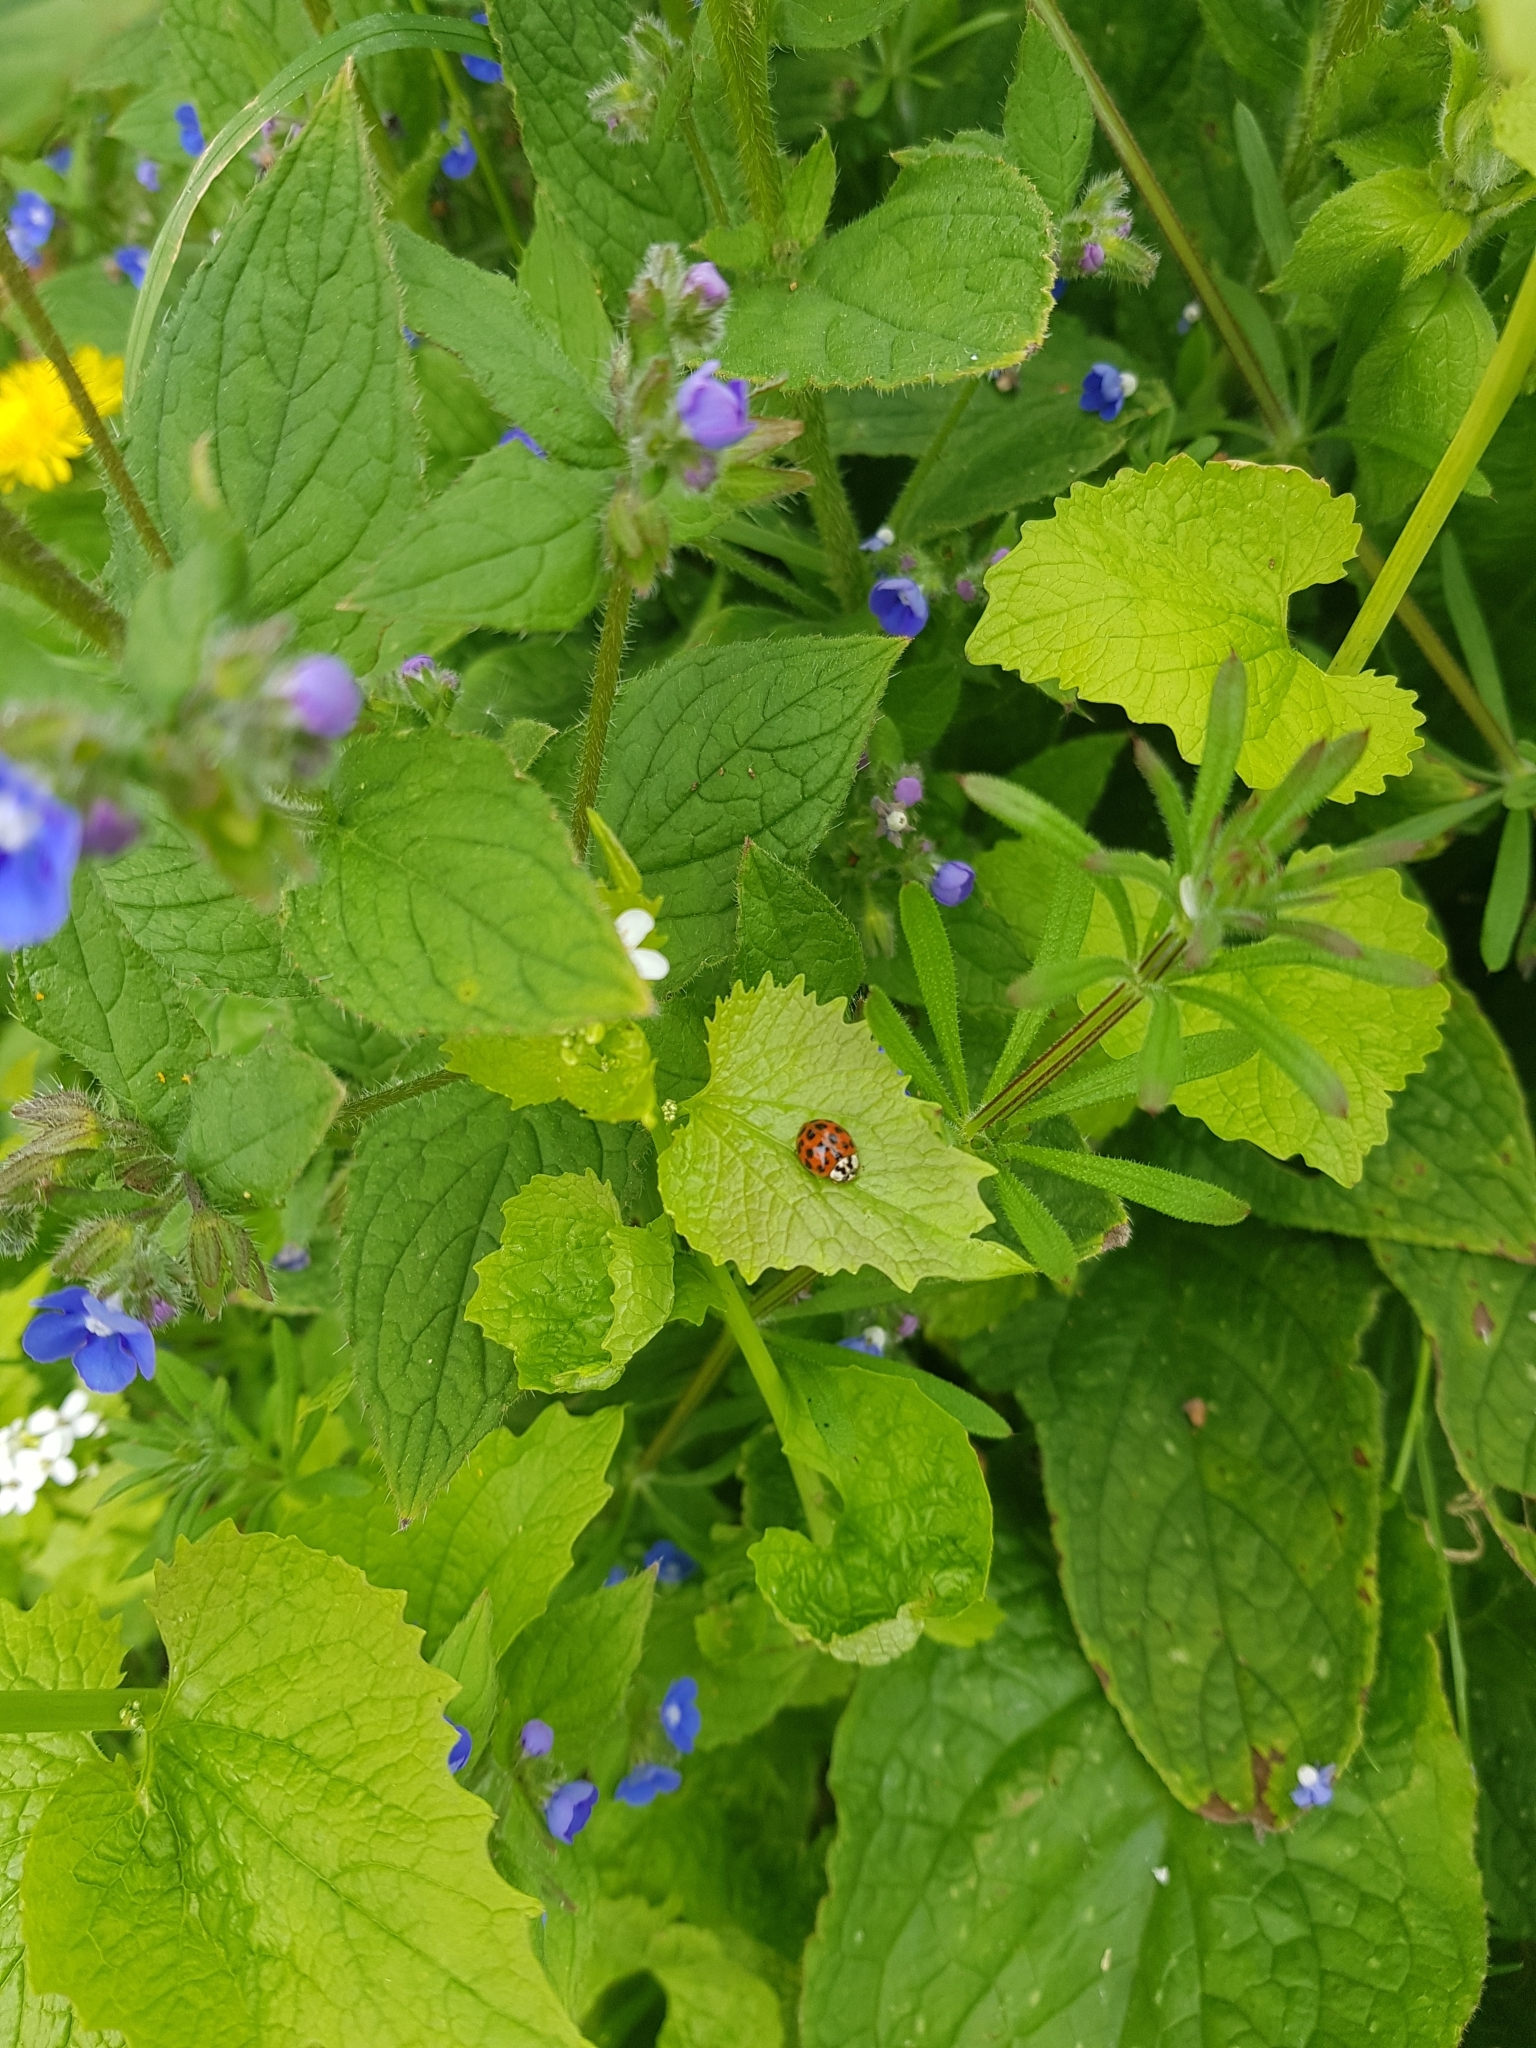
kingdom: Animalia
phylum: Arthropoda
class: Insecta
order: Coleoptera
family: Coccinellidae
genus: Harmonia
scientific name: Harmonia axyridis
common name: Harlequin ladybird
